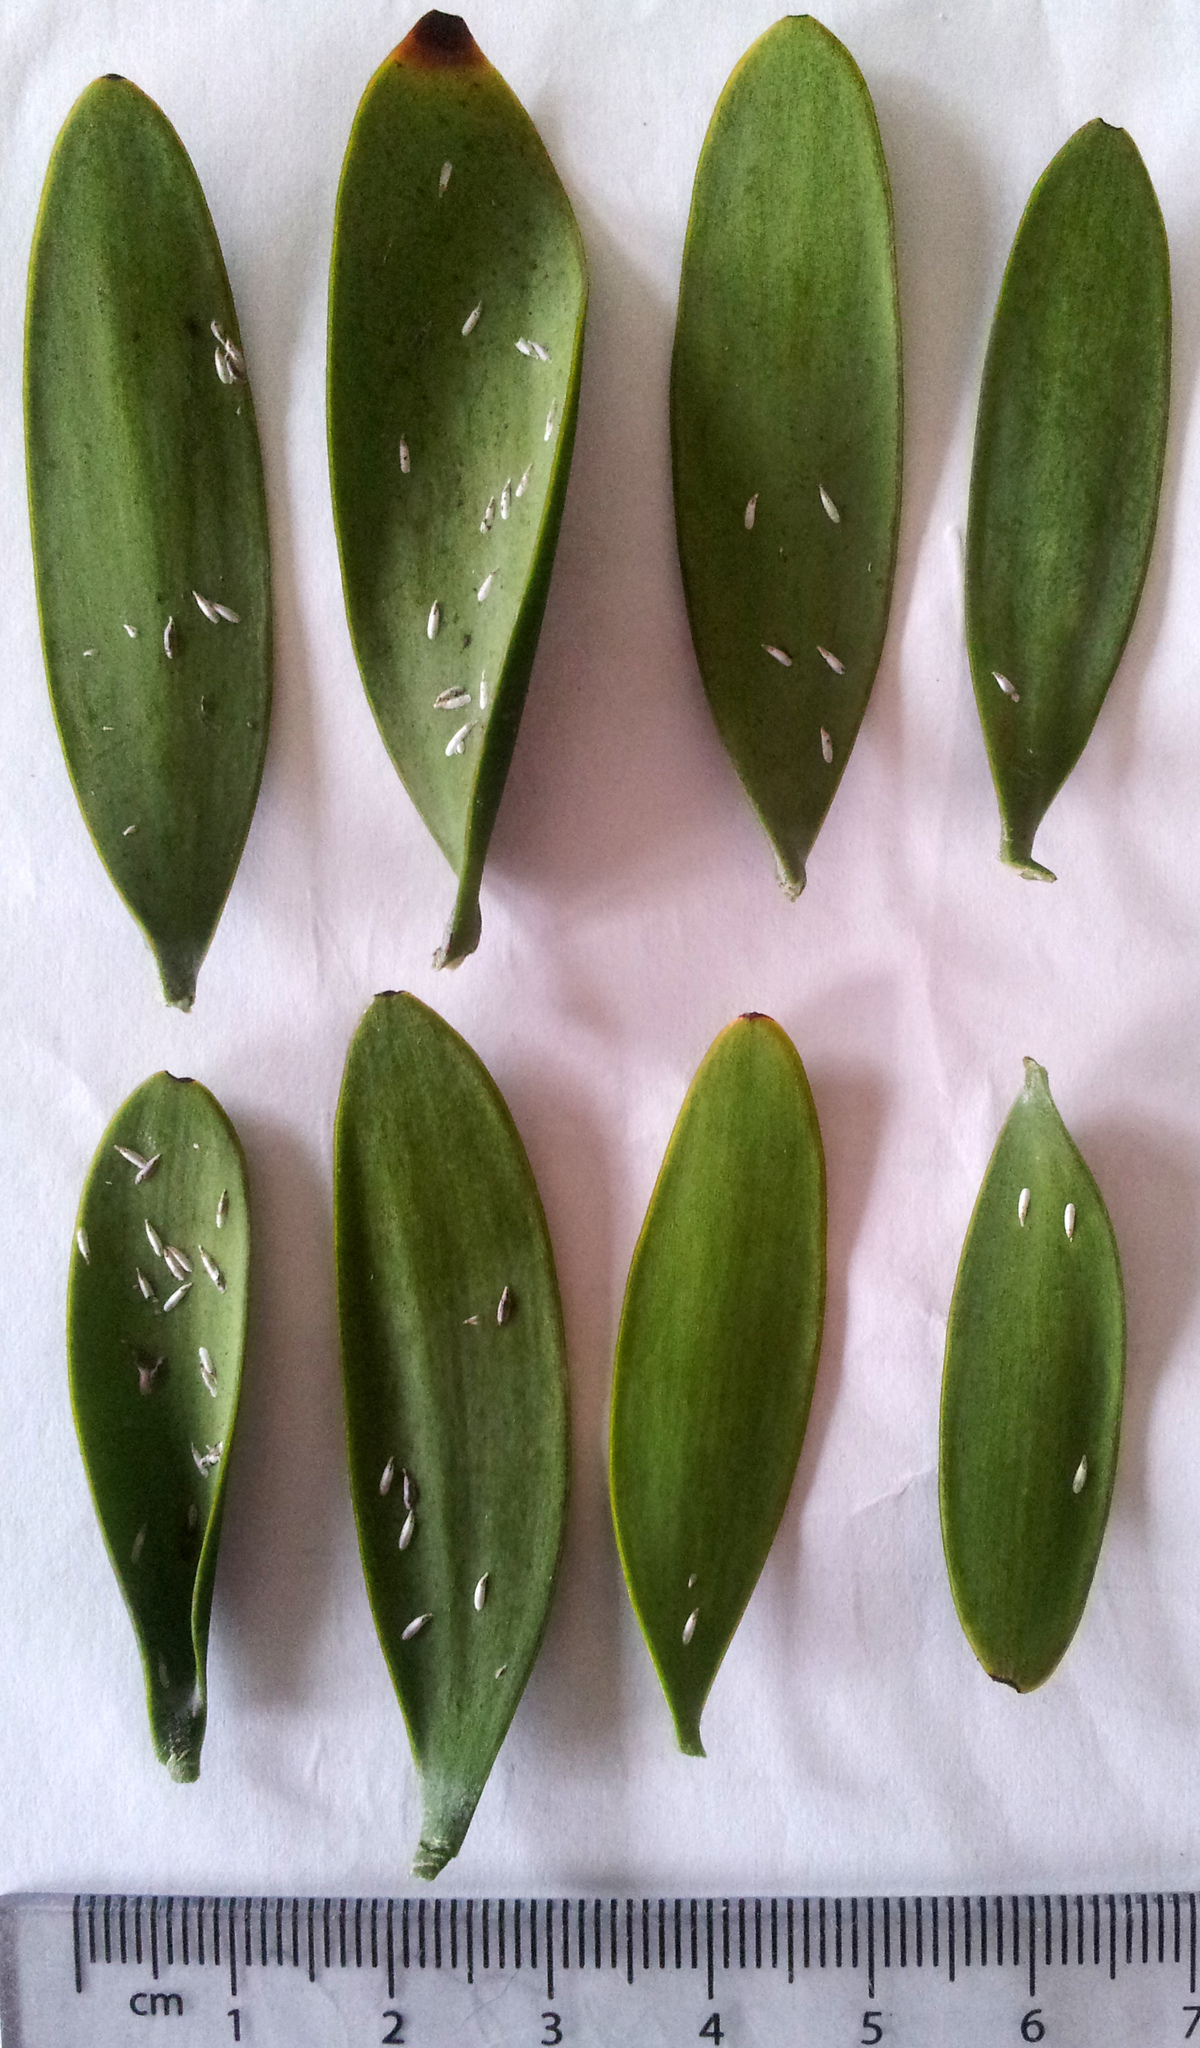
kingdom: Animalia
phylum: Arthropoda
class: Insecta
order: Hemiptera
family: Diaspididae
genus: Leucaspis
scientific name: Leucaspis portaeaureae
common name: Podocarpus leucaspis scale
